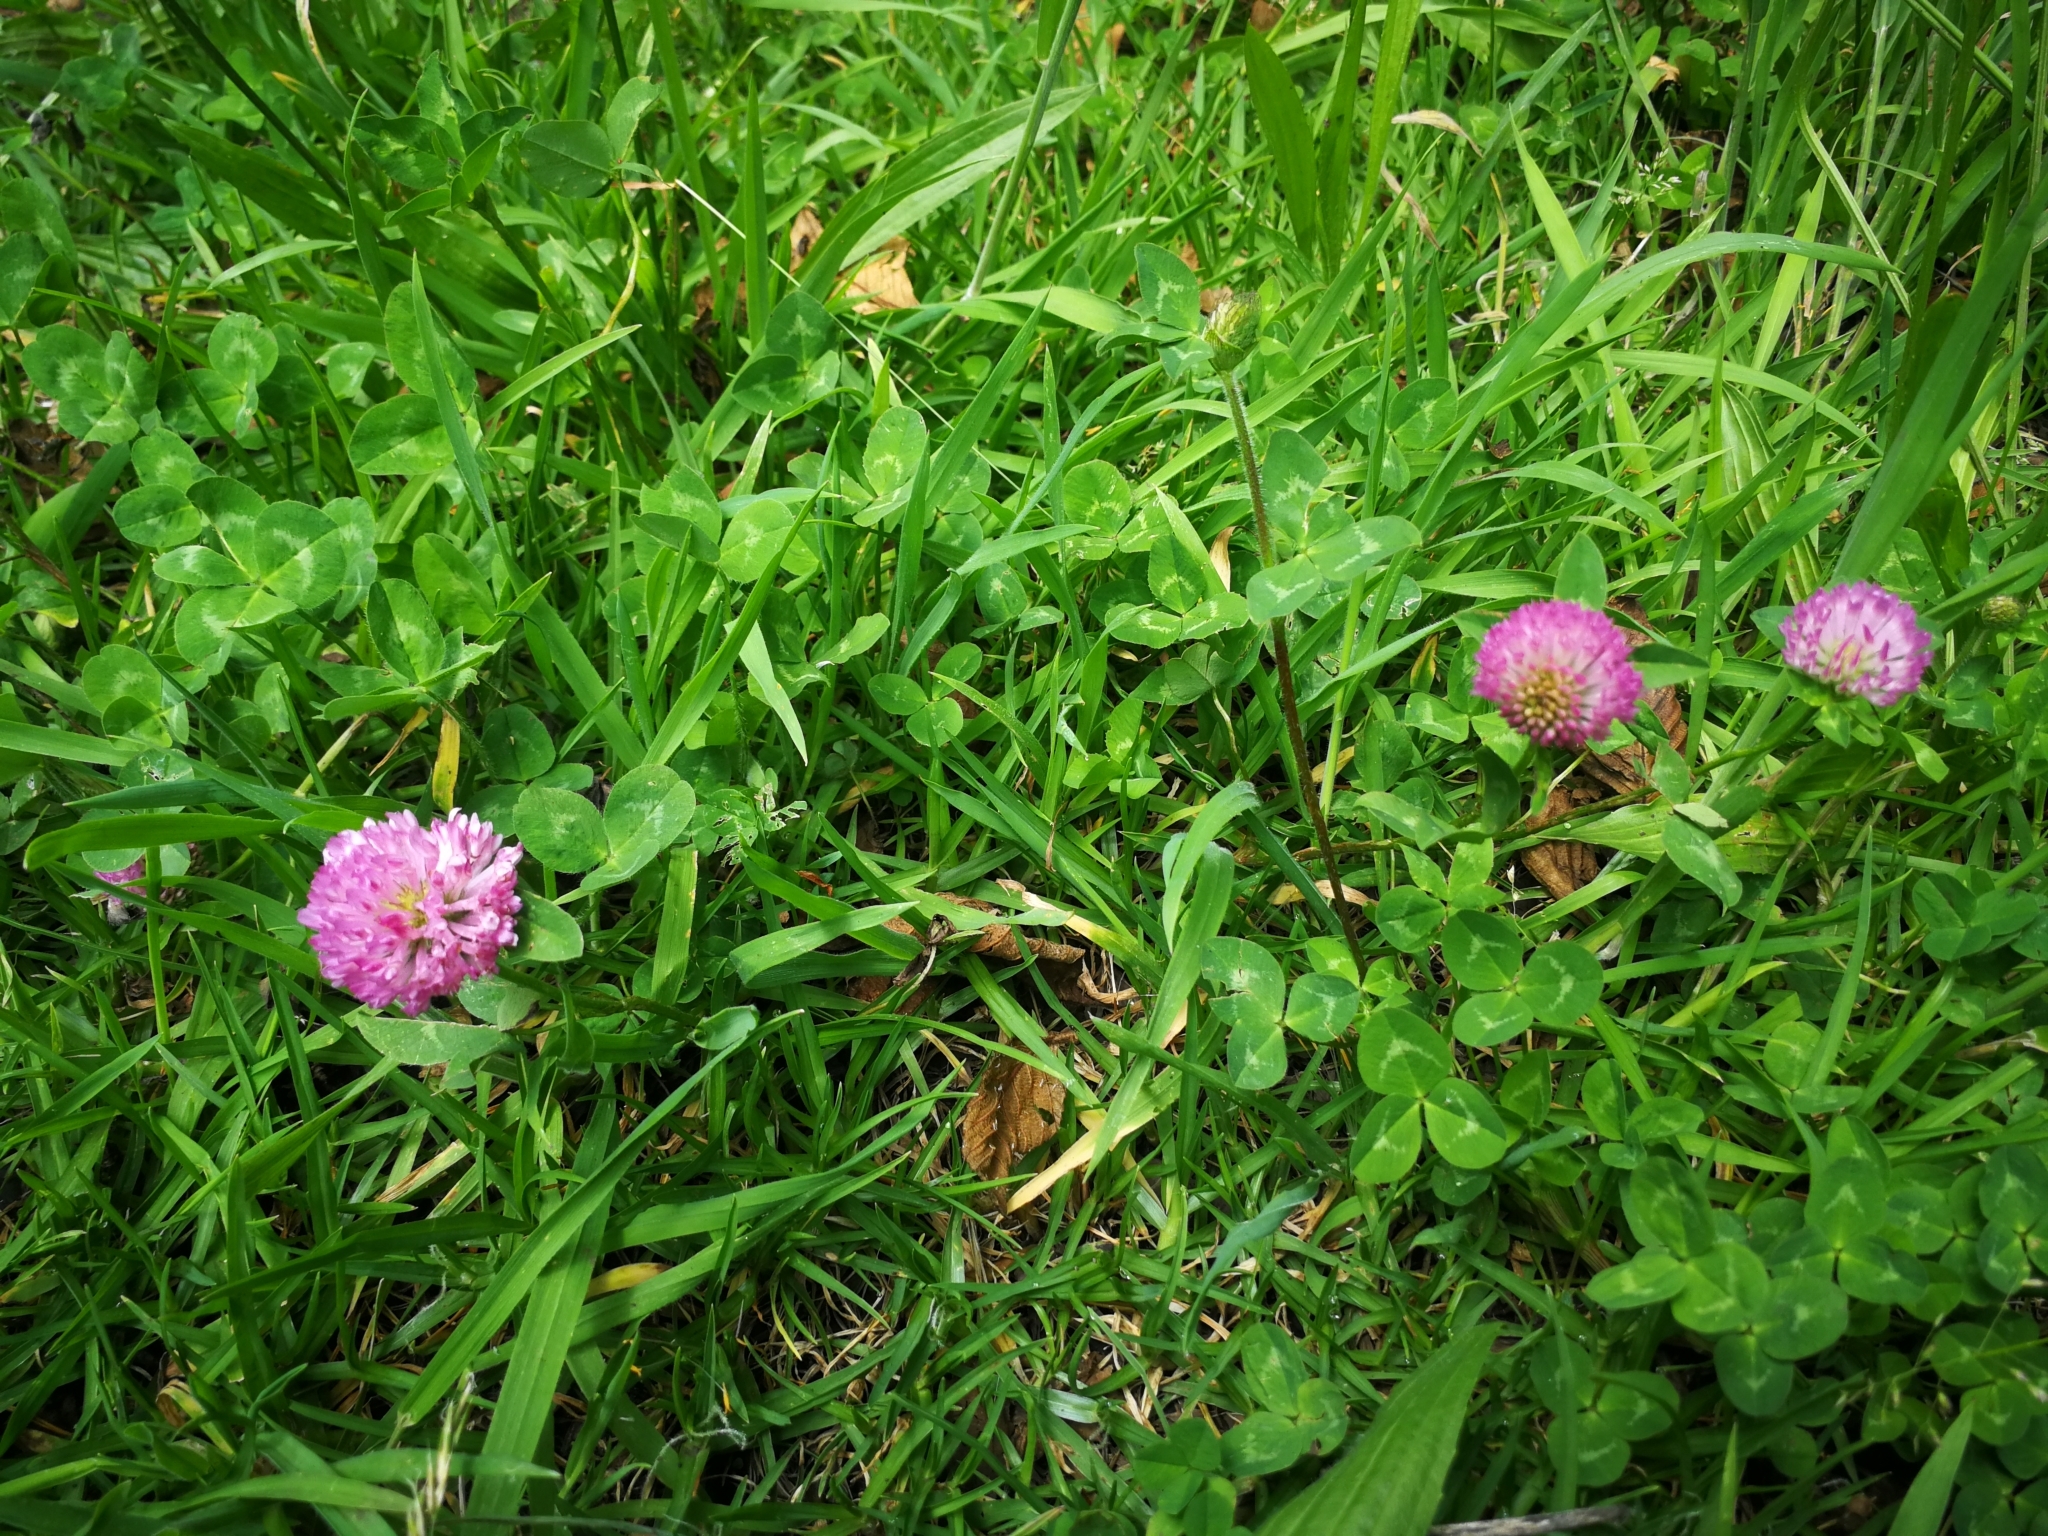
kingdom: Plantae
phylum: Tracheophyta
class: Magnoliopsida
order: Fabales
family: Fabaceae
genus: Trifolium
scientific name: Trifolium pratense
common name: Red clover
